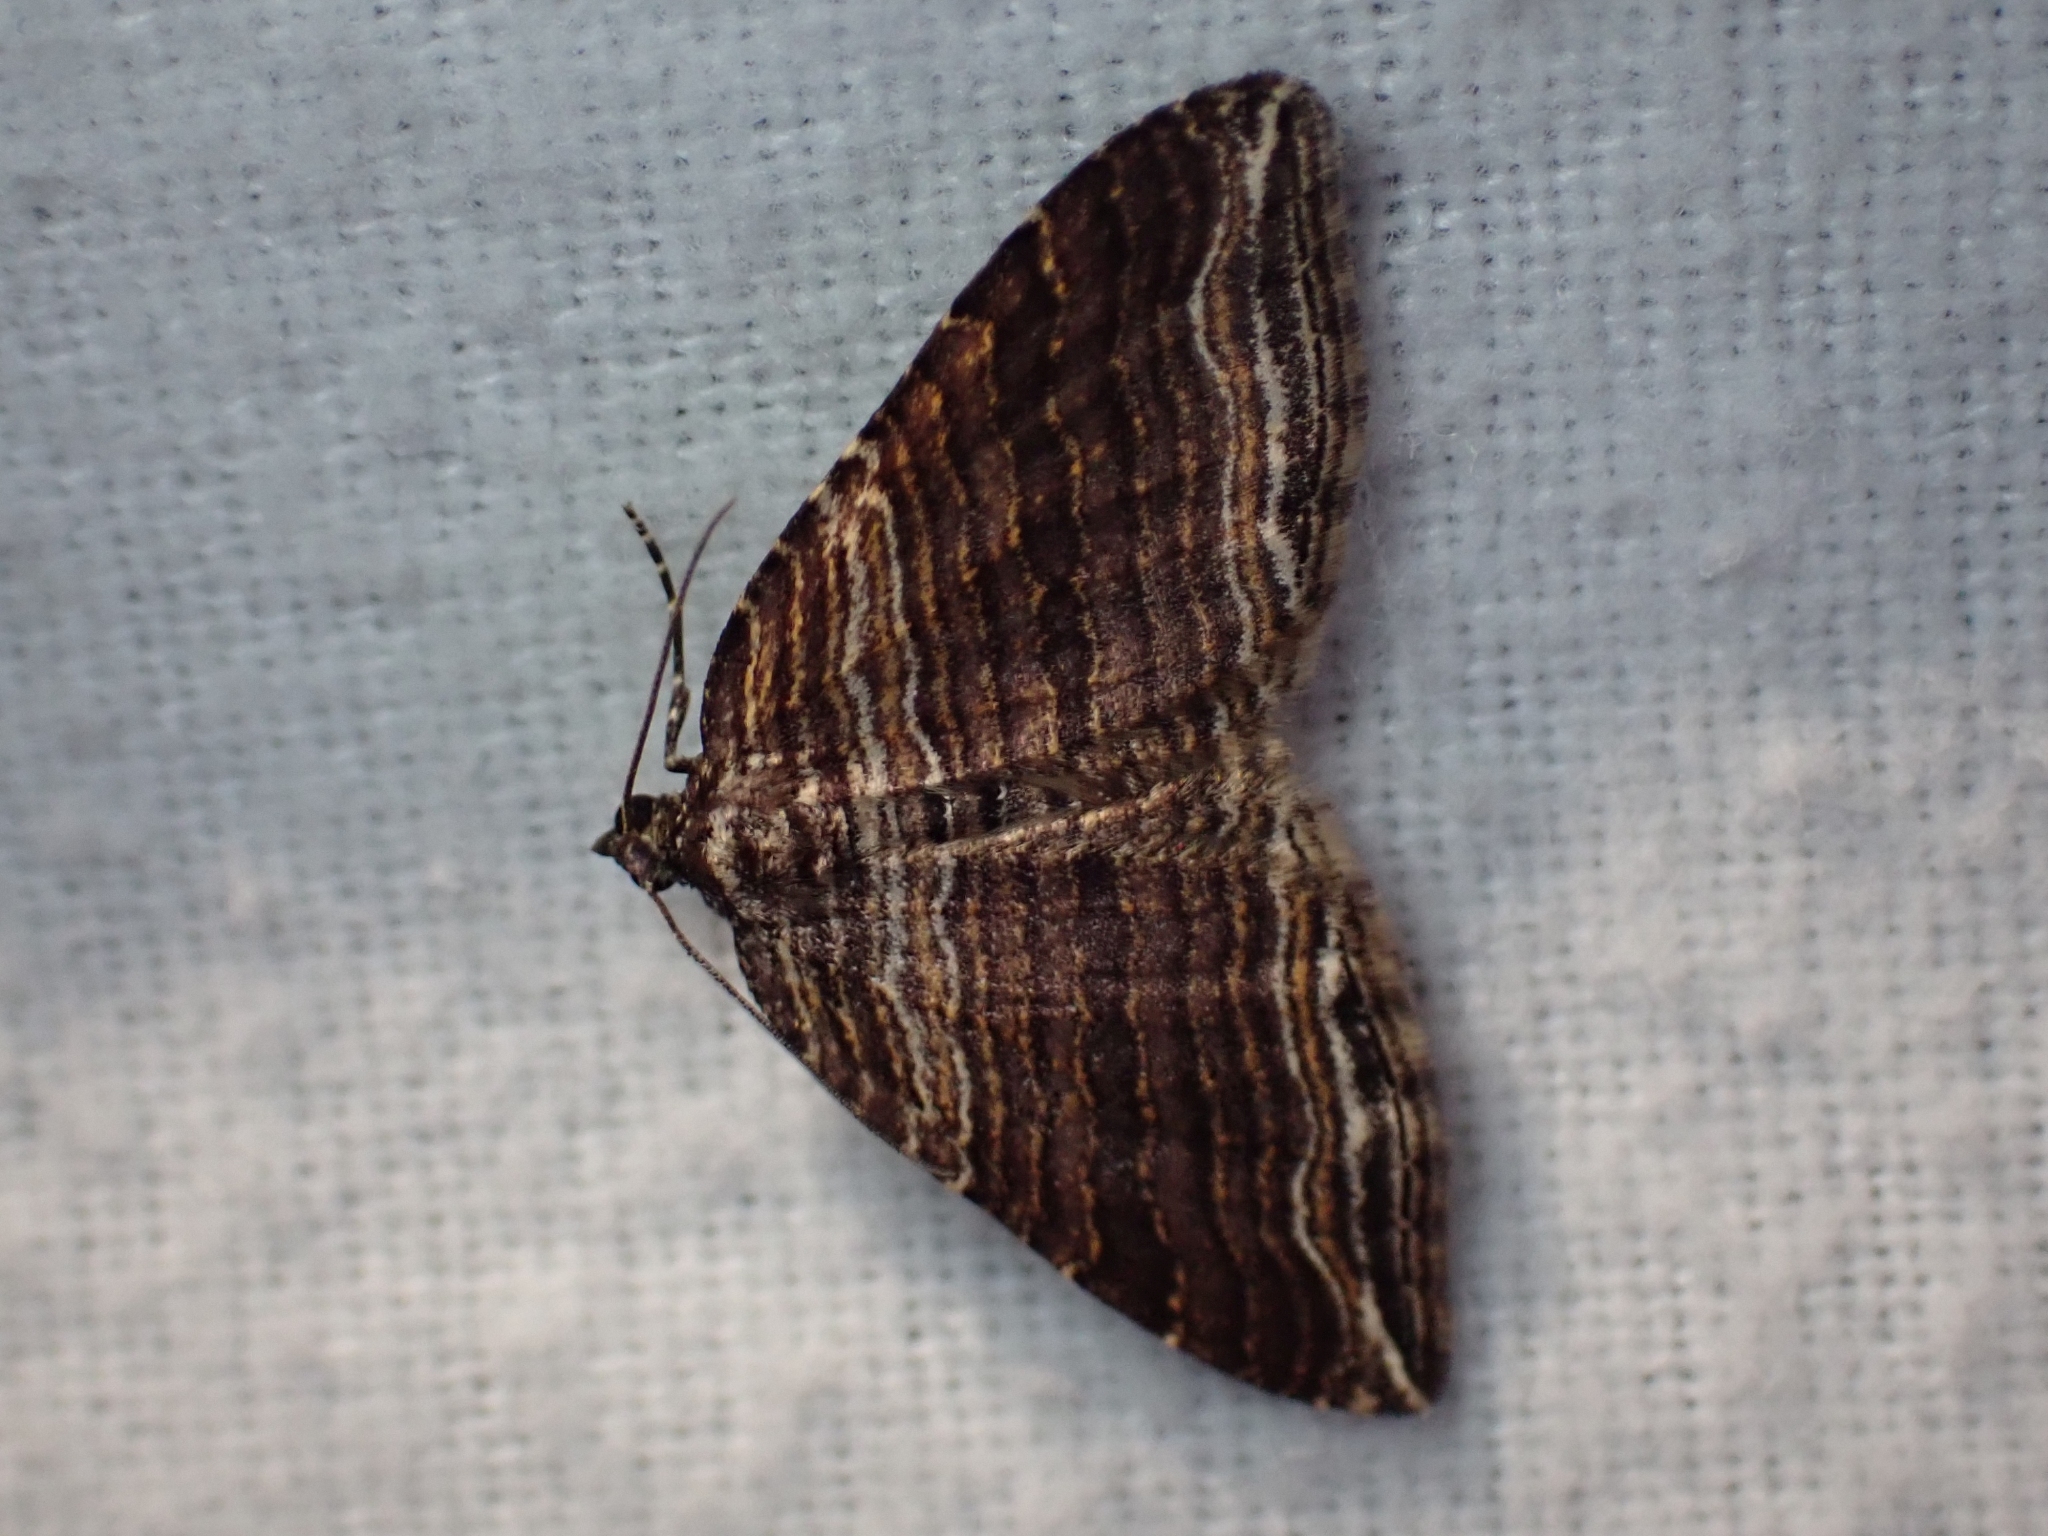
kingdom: Animalia
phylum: Arthropoda
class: Insecta
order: Lepidoptera
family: Geometridae
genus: Anticlea
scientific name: Anticlea multiferata
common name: Many-lined carpet
